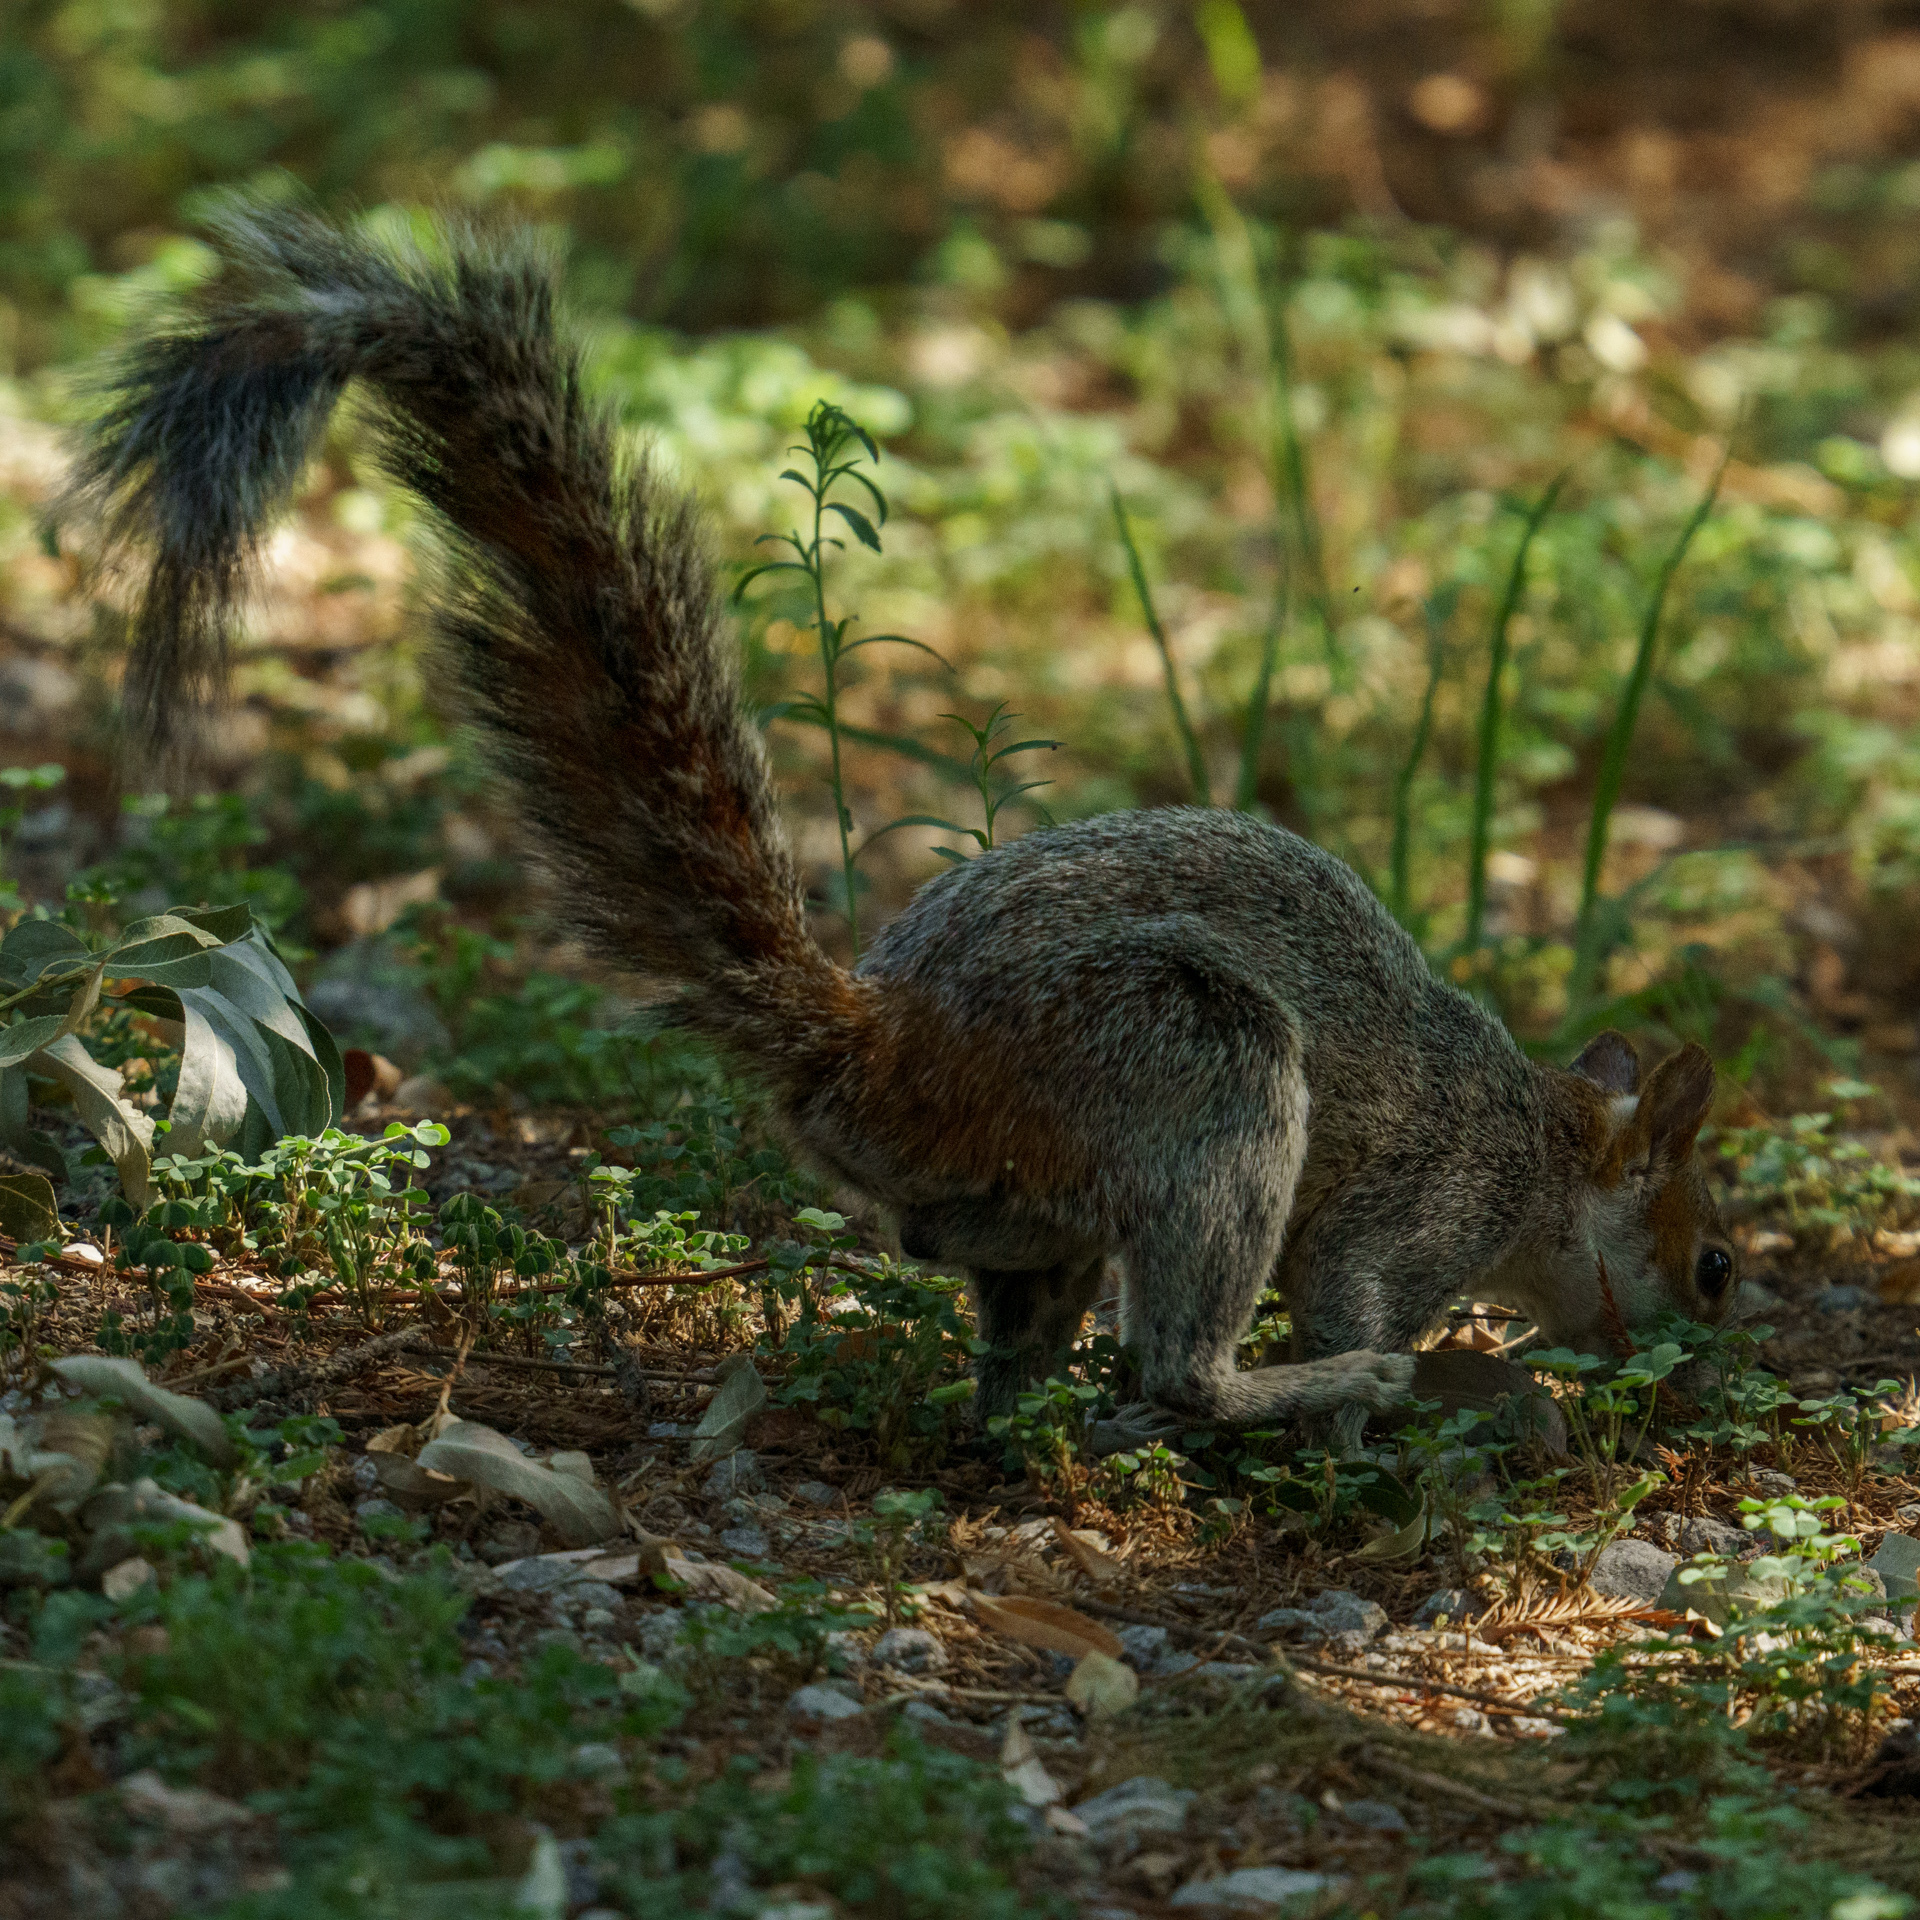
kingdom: Animalia
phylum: Chordata
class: Mammalia
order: Rodentia
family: Sciuridae
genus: Sciurus
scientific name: Sciurus aureogaster
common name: Red-bellied squirrel
